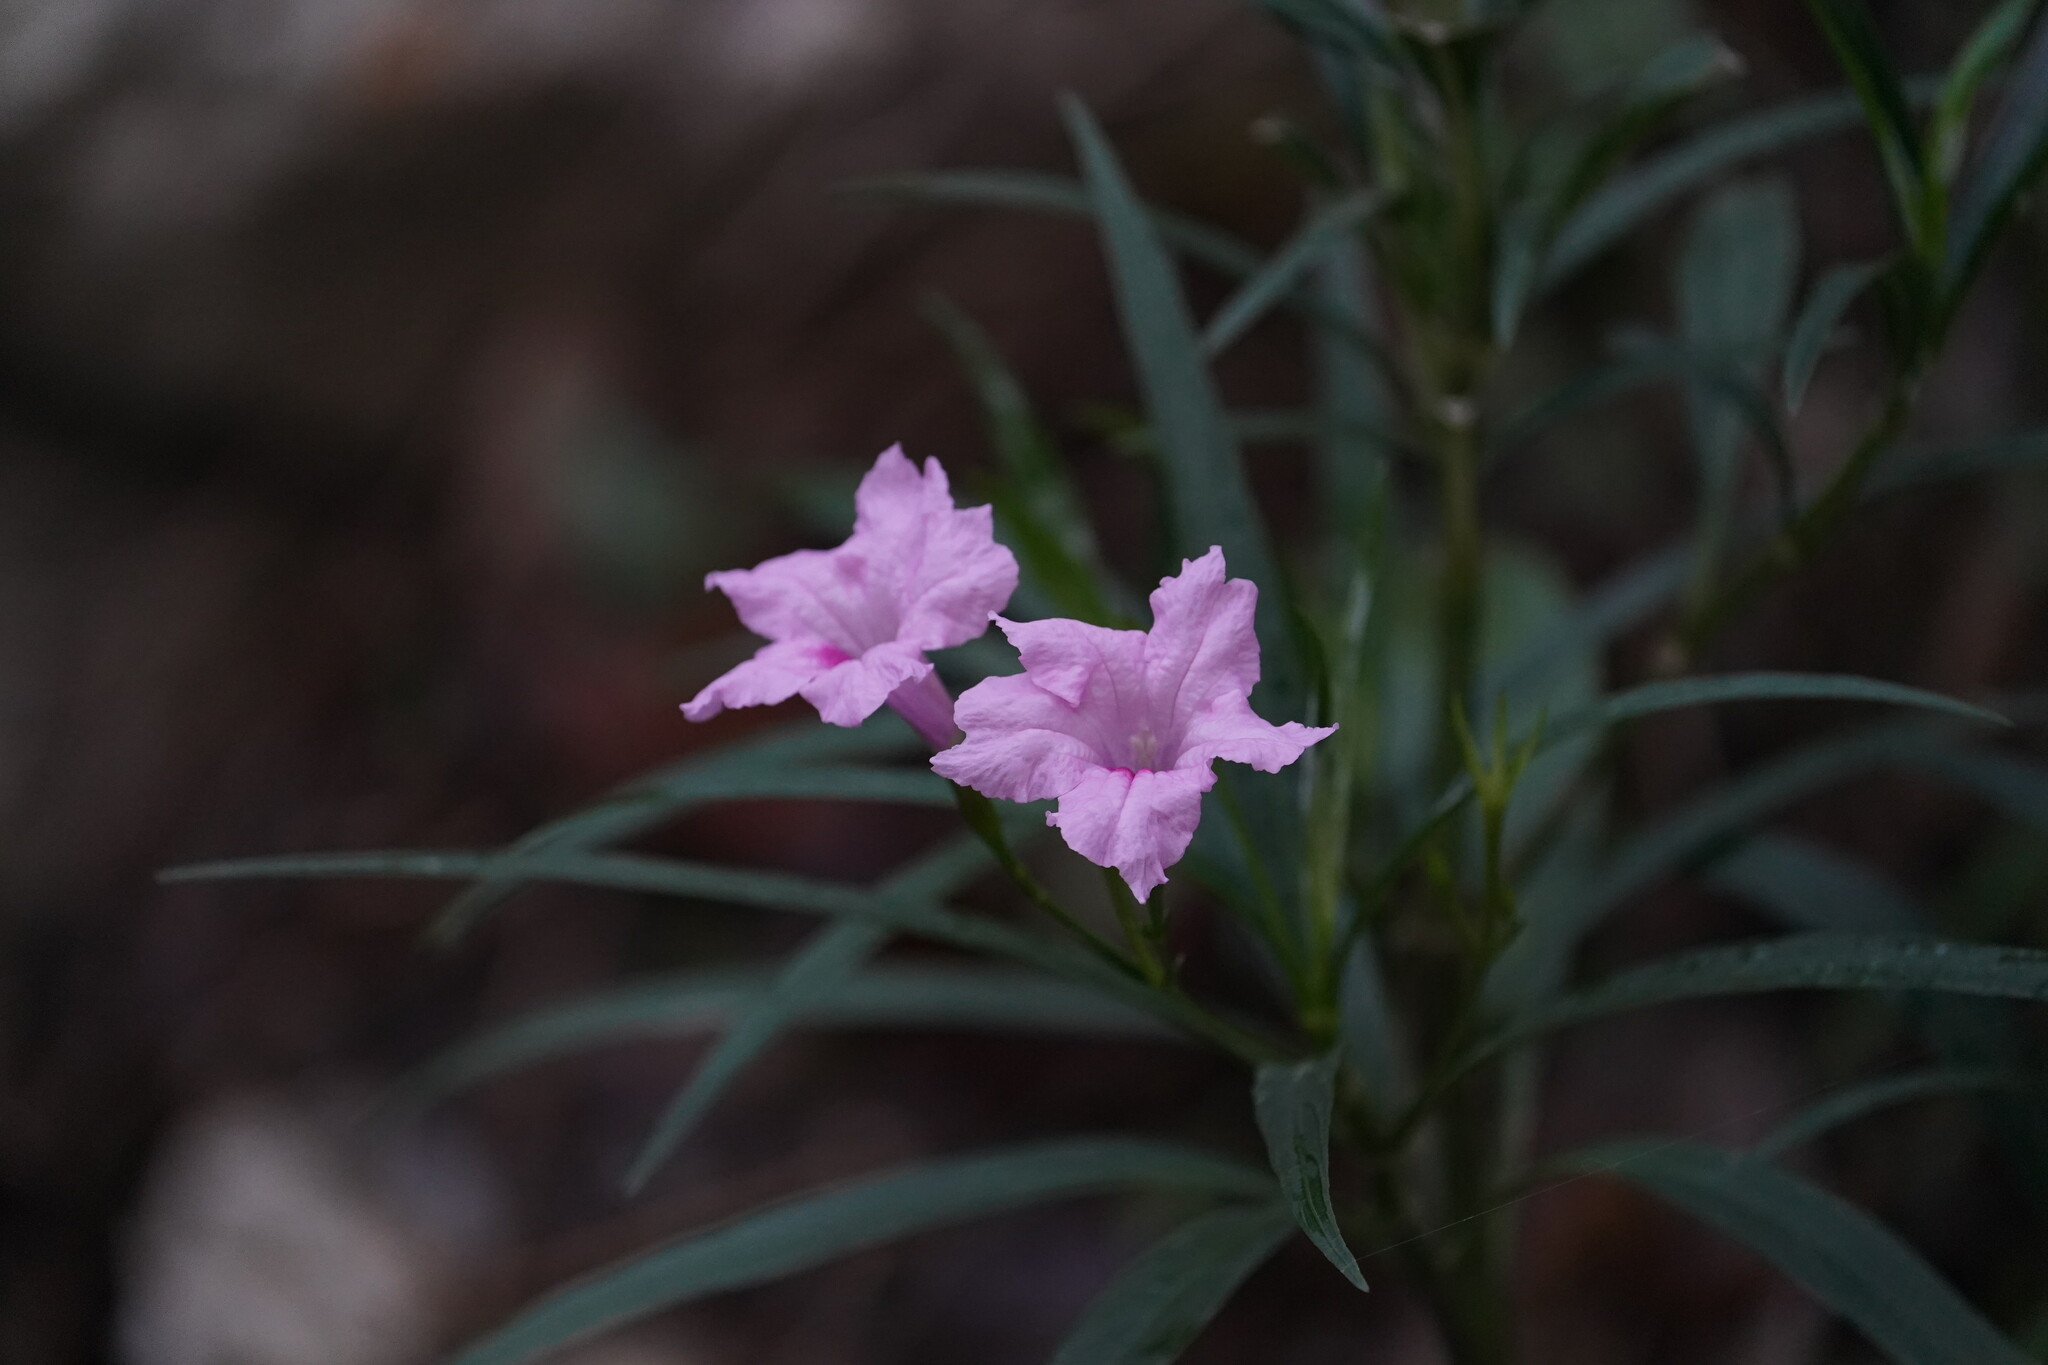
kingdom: Plantae
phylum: Tracheophyta
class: Magnoliopsida
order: Lamiales
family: Acanthaceae
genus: Ruellia
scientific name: Ruellia simplex
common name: Softseed wild petunia
